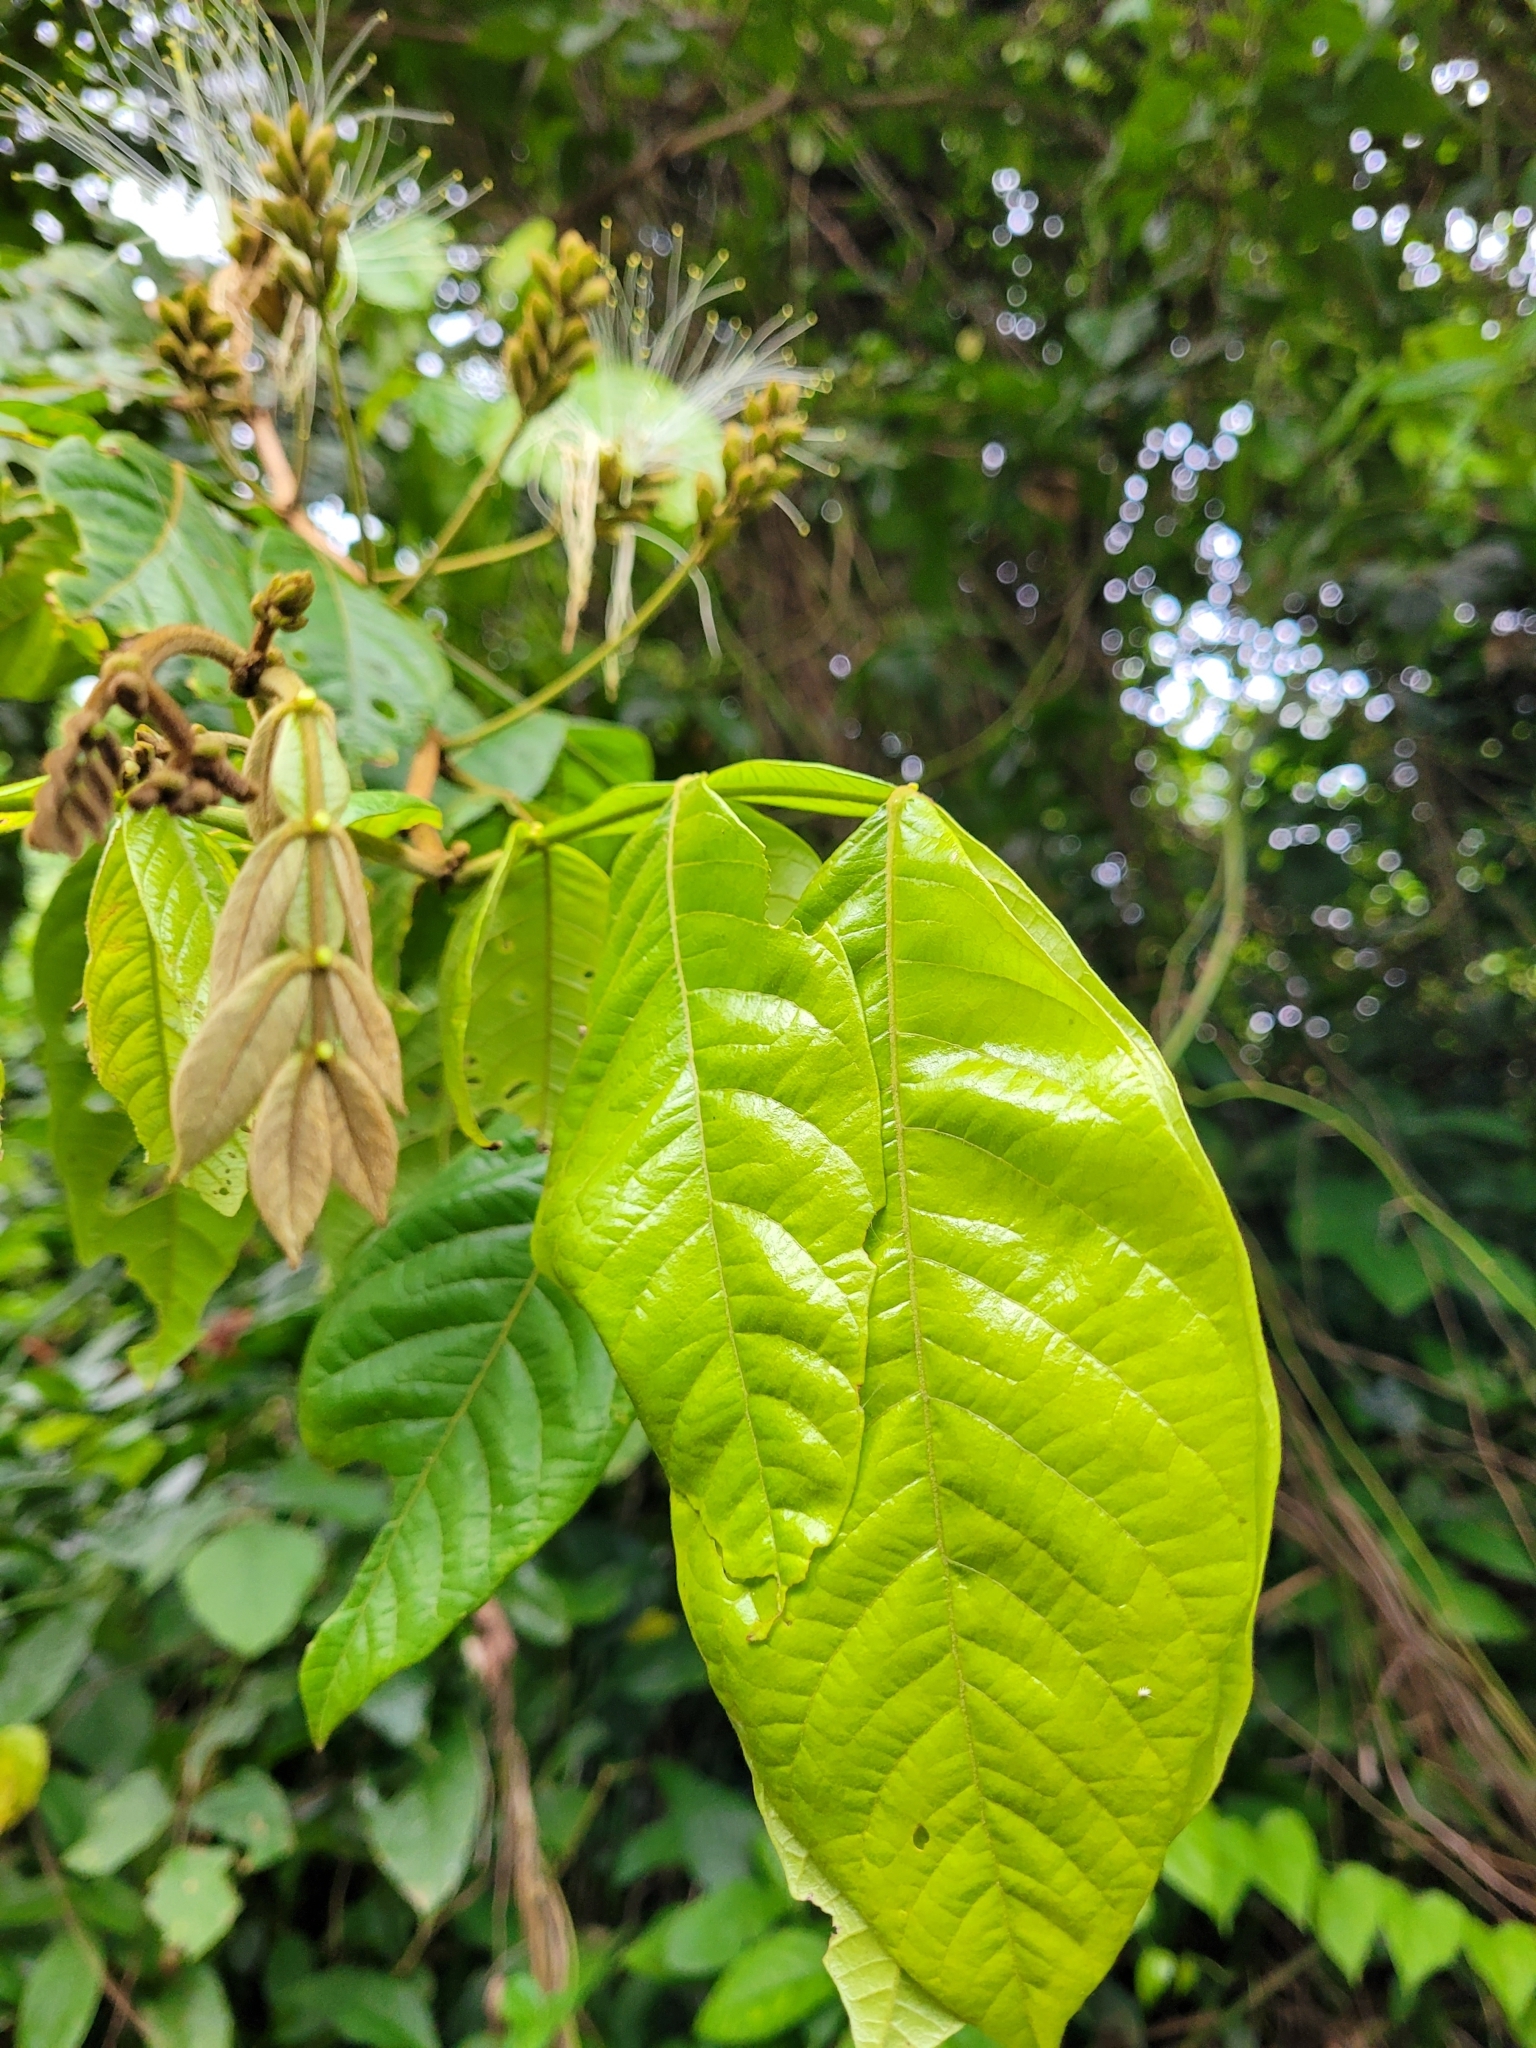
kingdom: Plantae
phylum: Tracheophyta
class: Magnoliopsida
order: Fabales
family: Fabaceae
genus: Inga
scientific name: Inga vera
